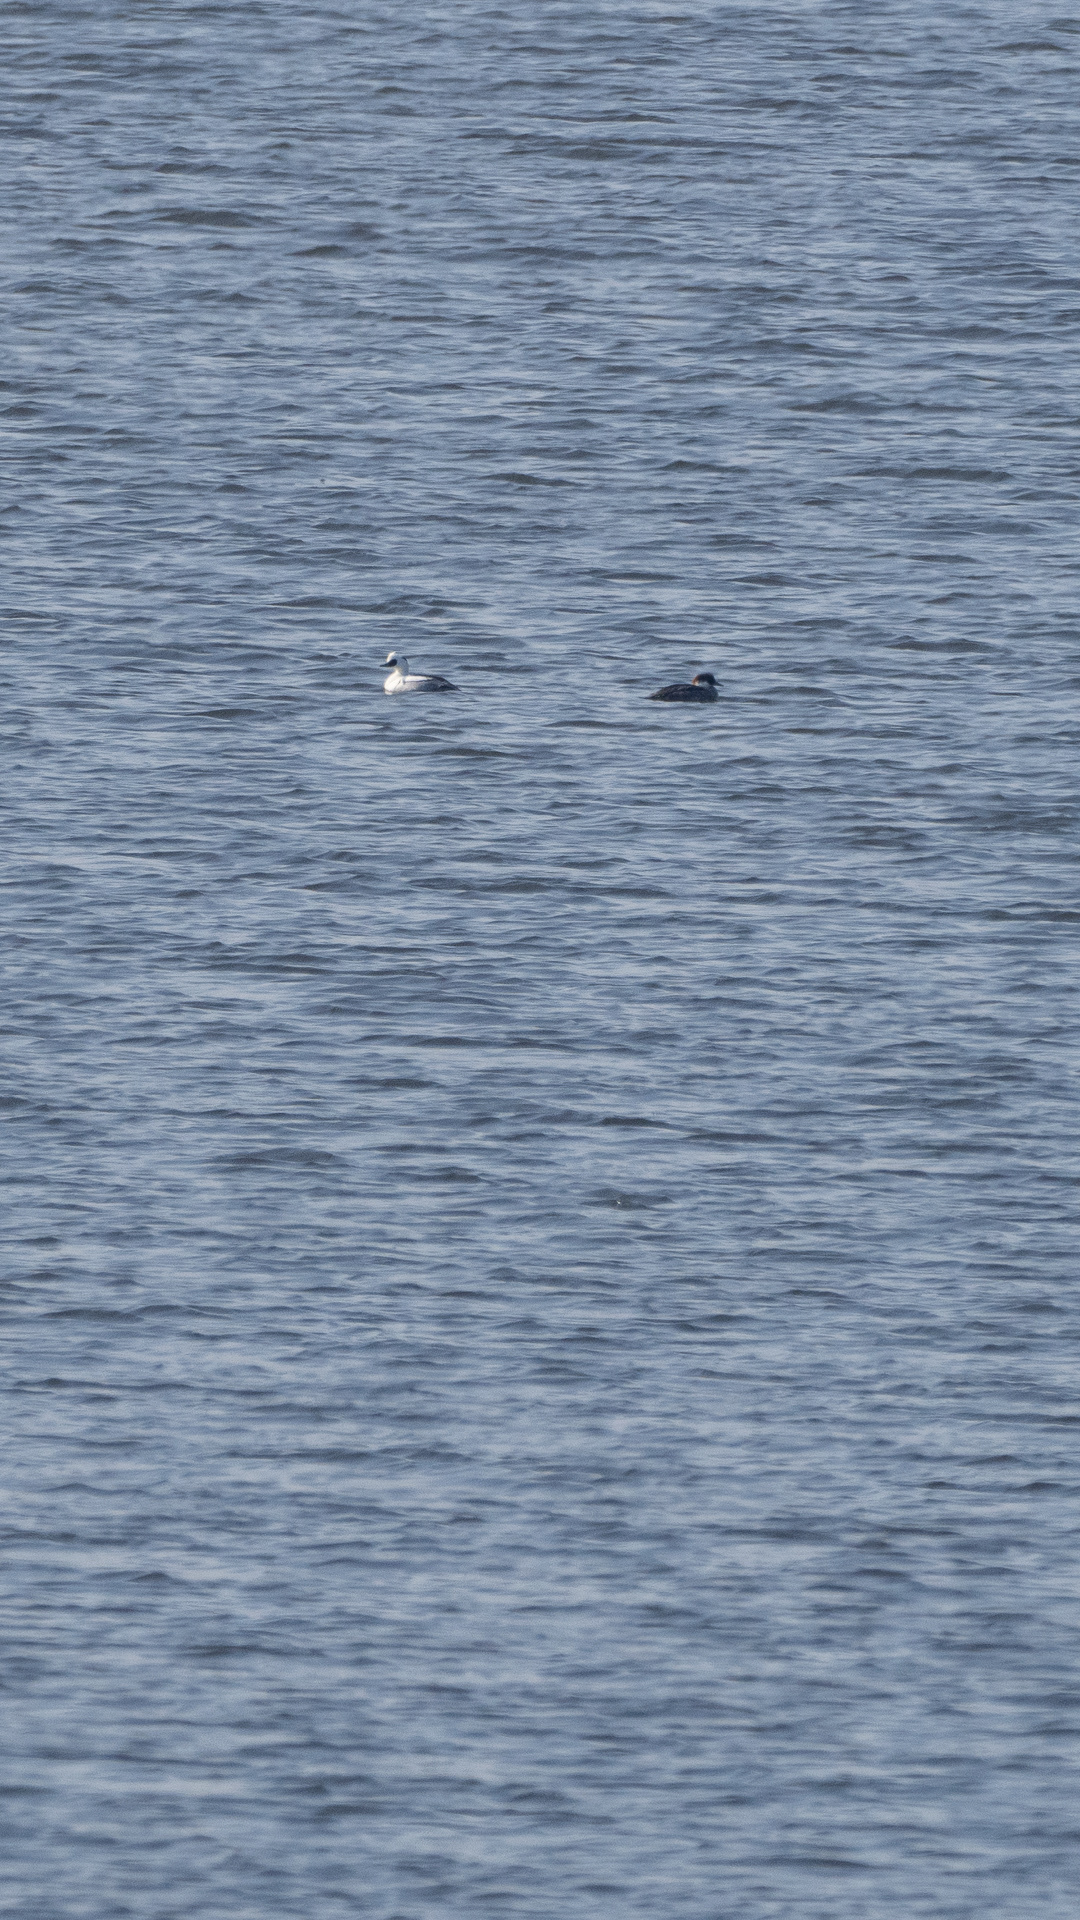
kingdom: Animalia
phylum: Chordata
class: Aves
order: Anseriformes
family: Anatidae
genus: Mergellus
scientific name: Mergellus albellus
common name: Smew
